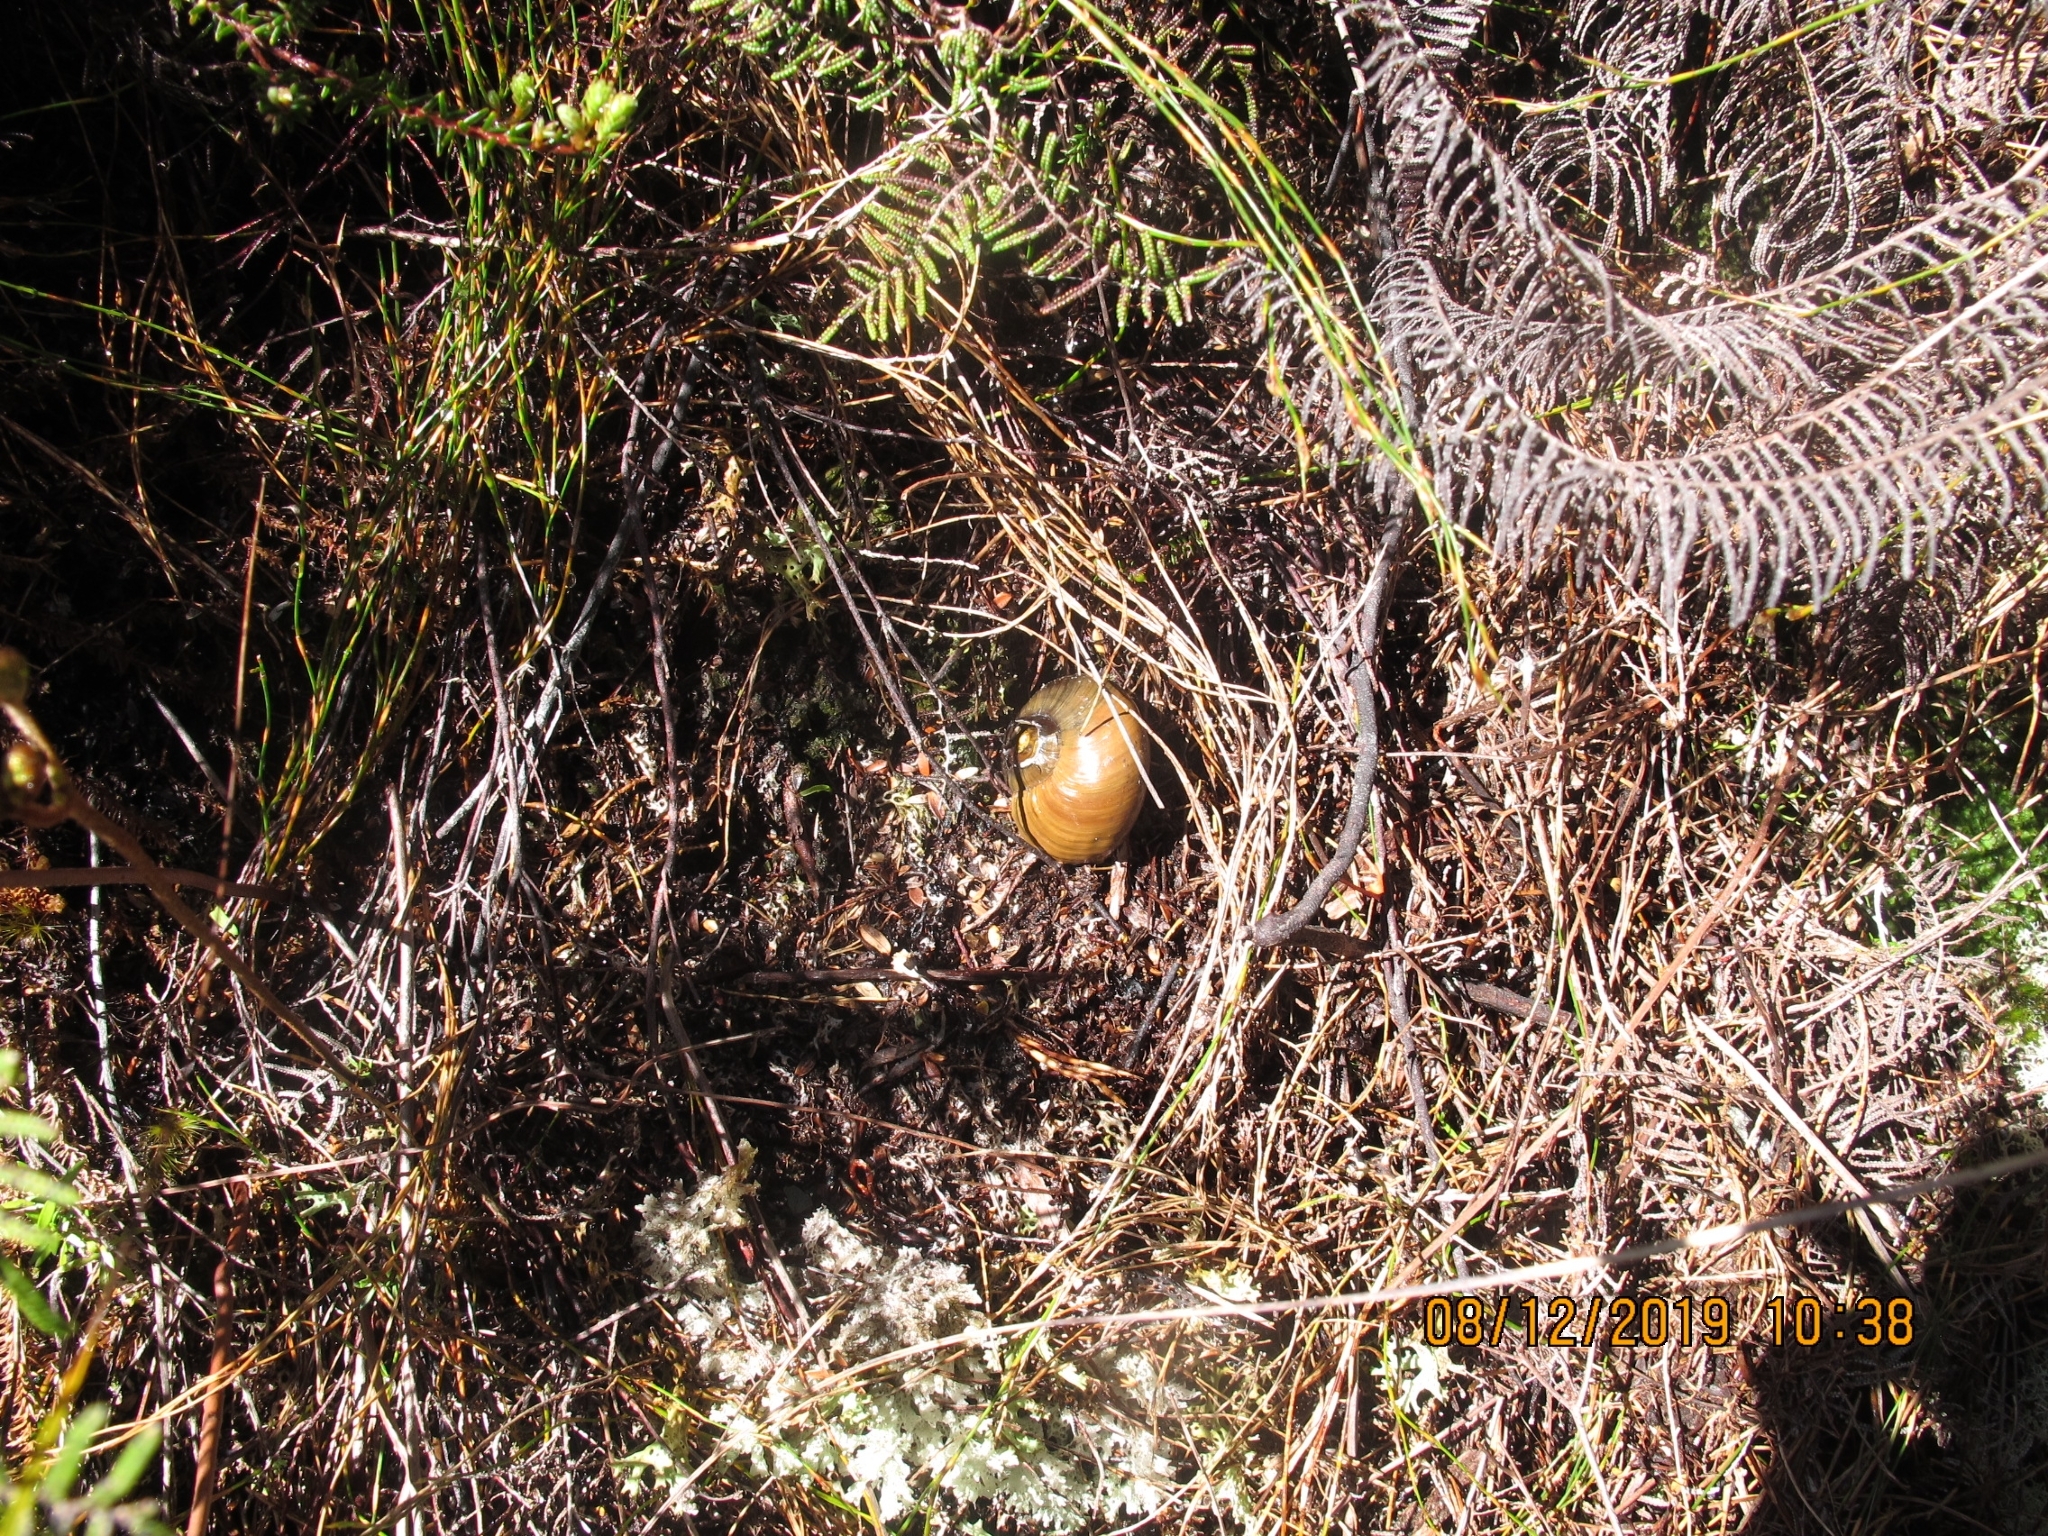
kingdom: Animalia
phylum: Mollusca
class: Gastropoda
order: Stylommatophora
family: Rhytididae
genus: Powelliphanta
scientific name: Powelliphanta superba
